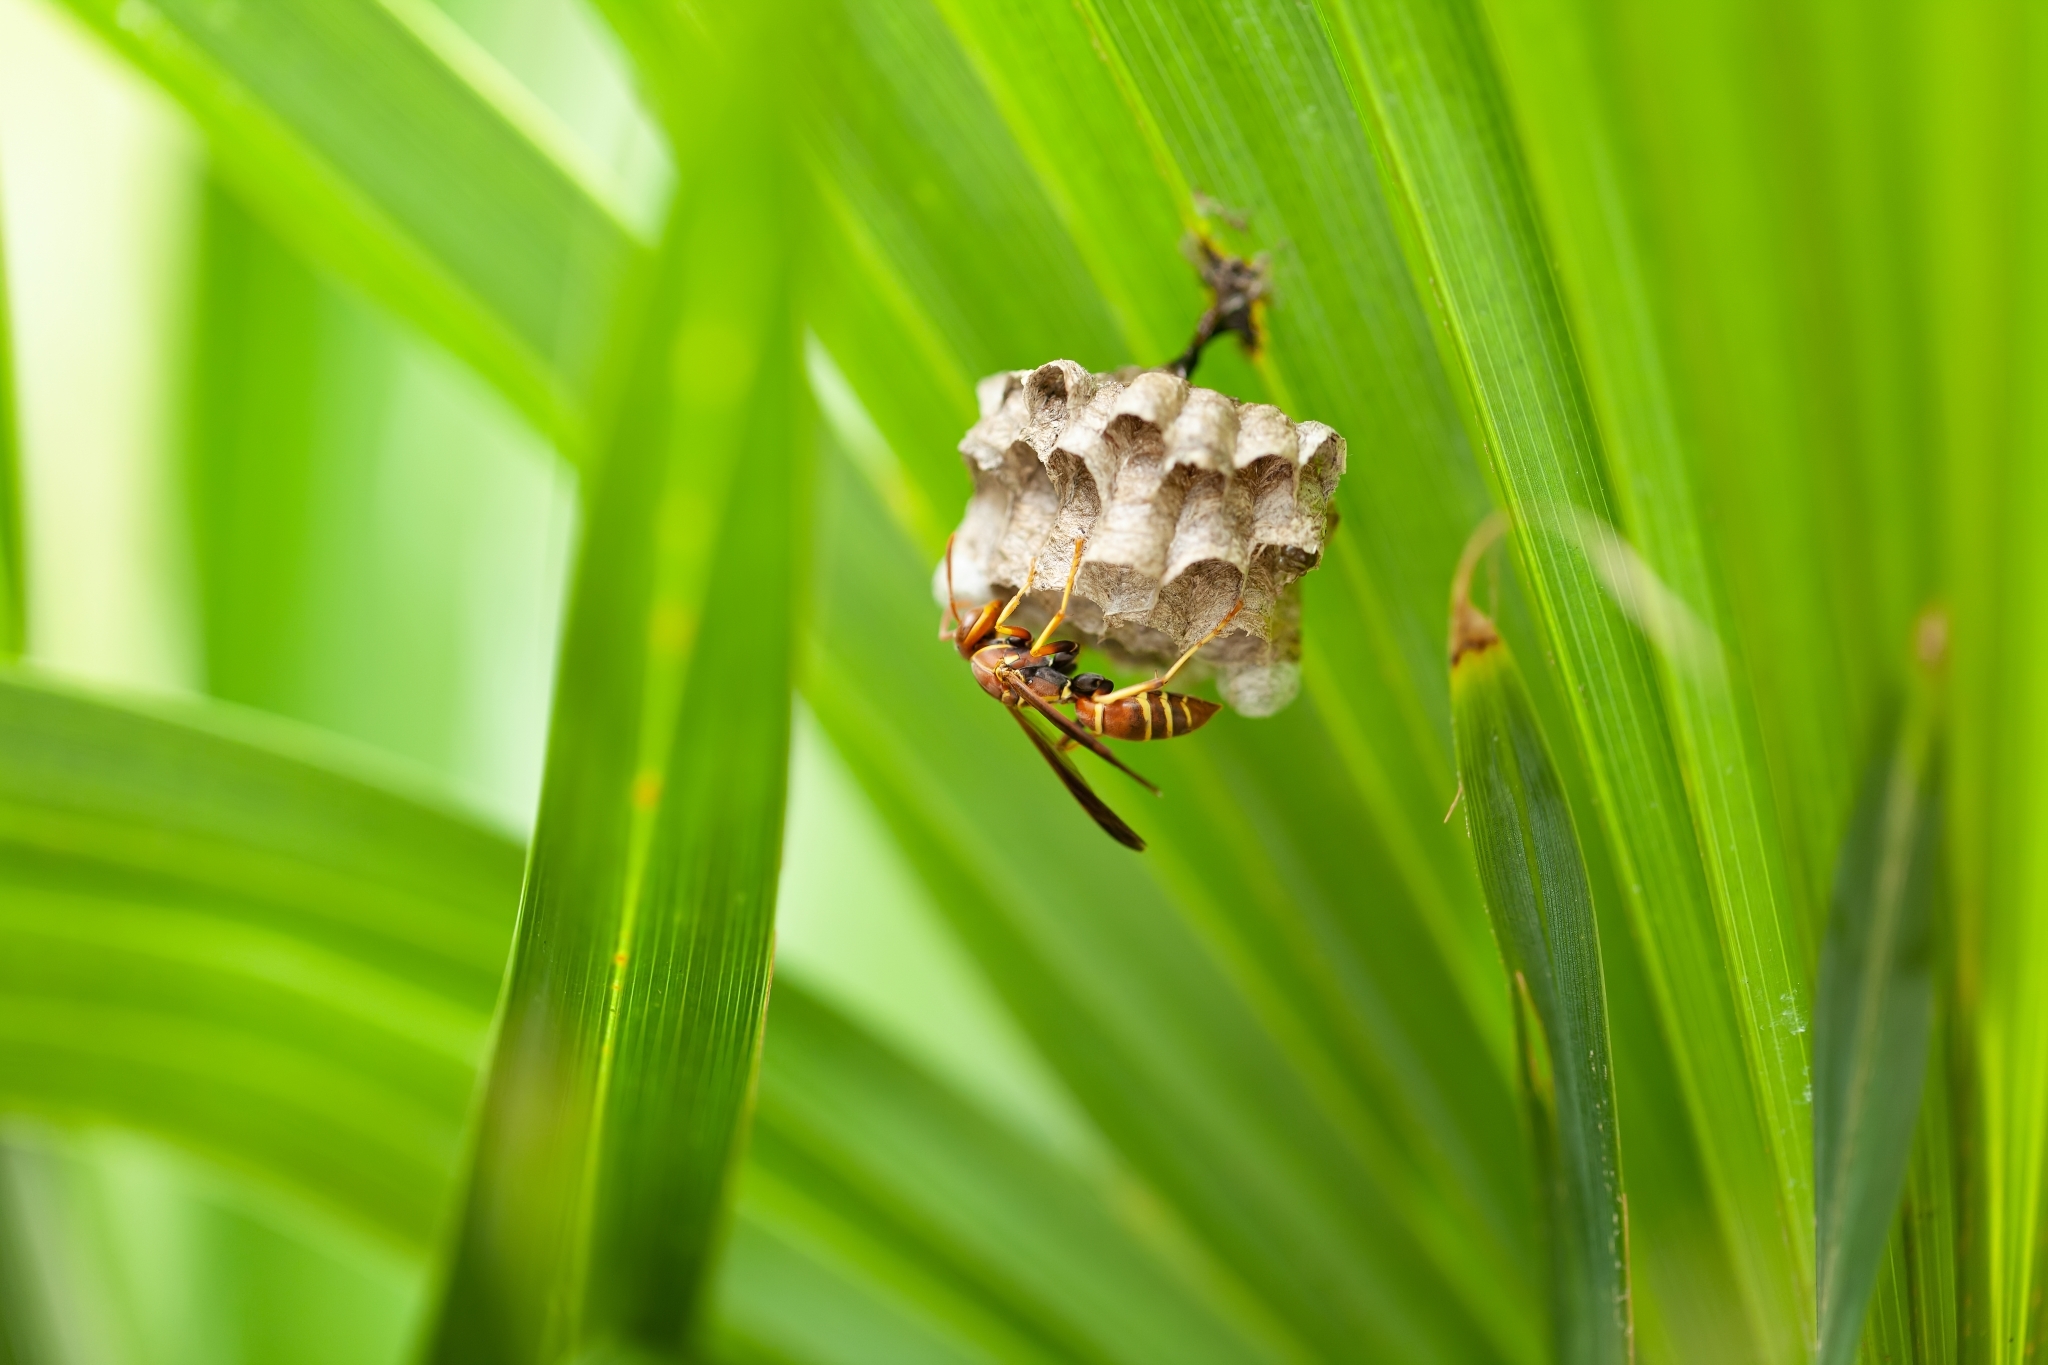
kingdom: Animalia
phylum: Arthropoda
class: Insecta
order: Hymenoptera
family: Eumenidae
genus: Polistes
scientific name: Polistes dorsalis
